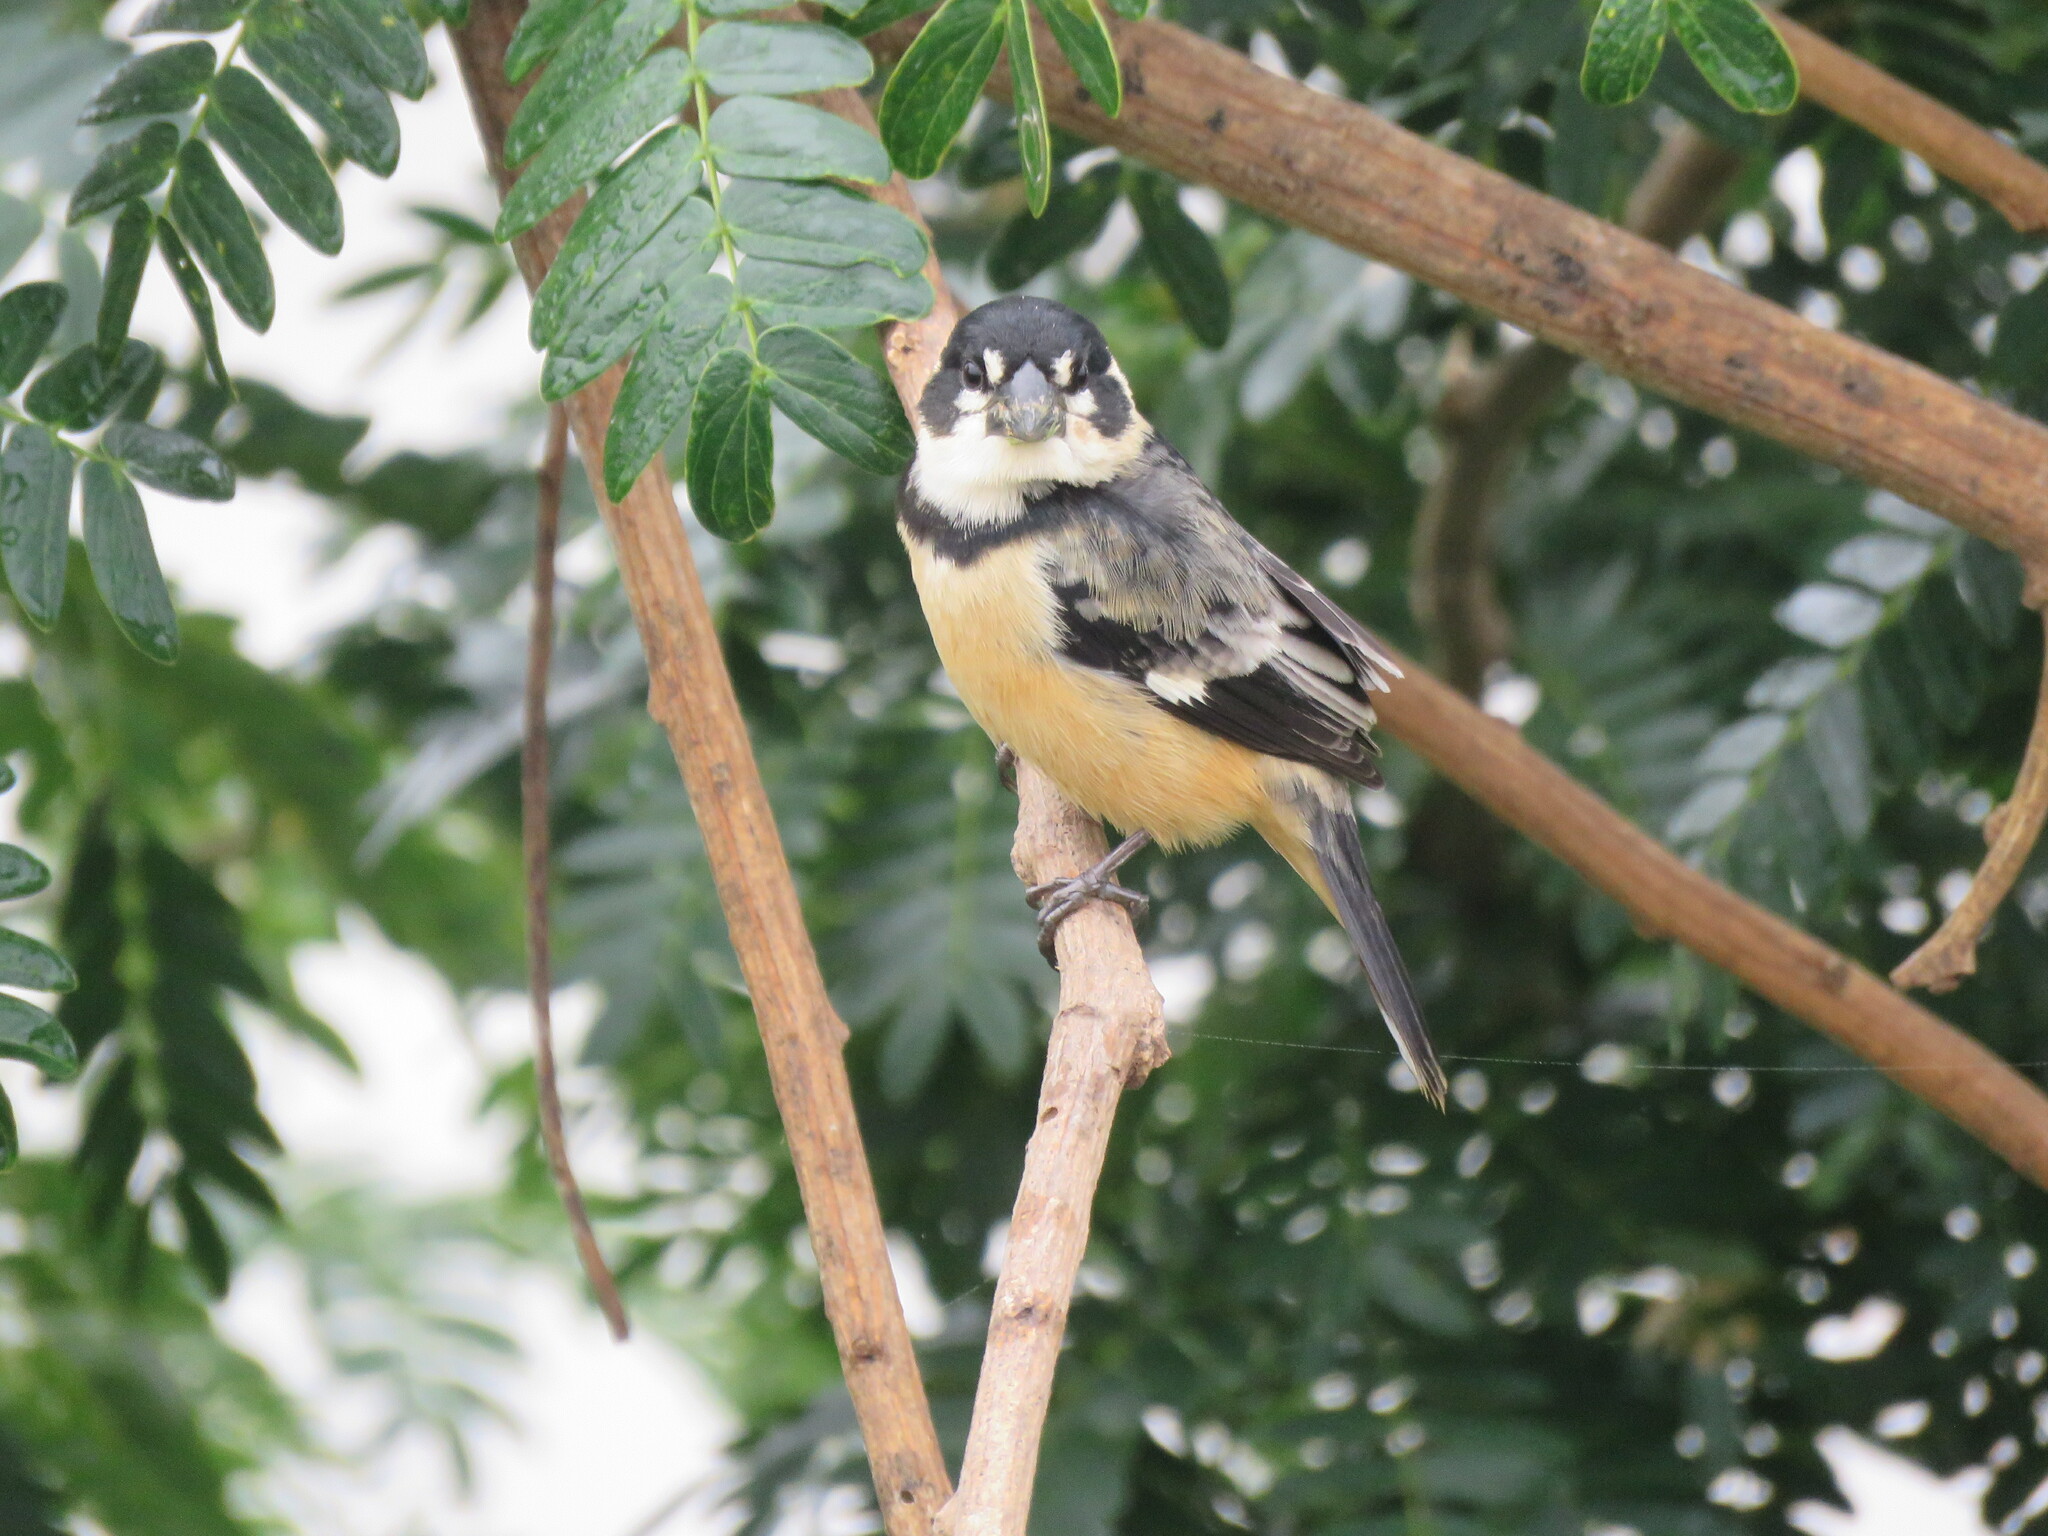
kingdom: Animalia
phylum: Chordata
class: Aves
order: Passeriformes
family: Thraupidae
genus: Sporophila
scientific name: Sporophila collaris
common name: Rusty-collared seedeater
